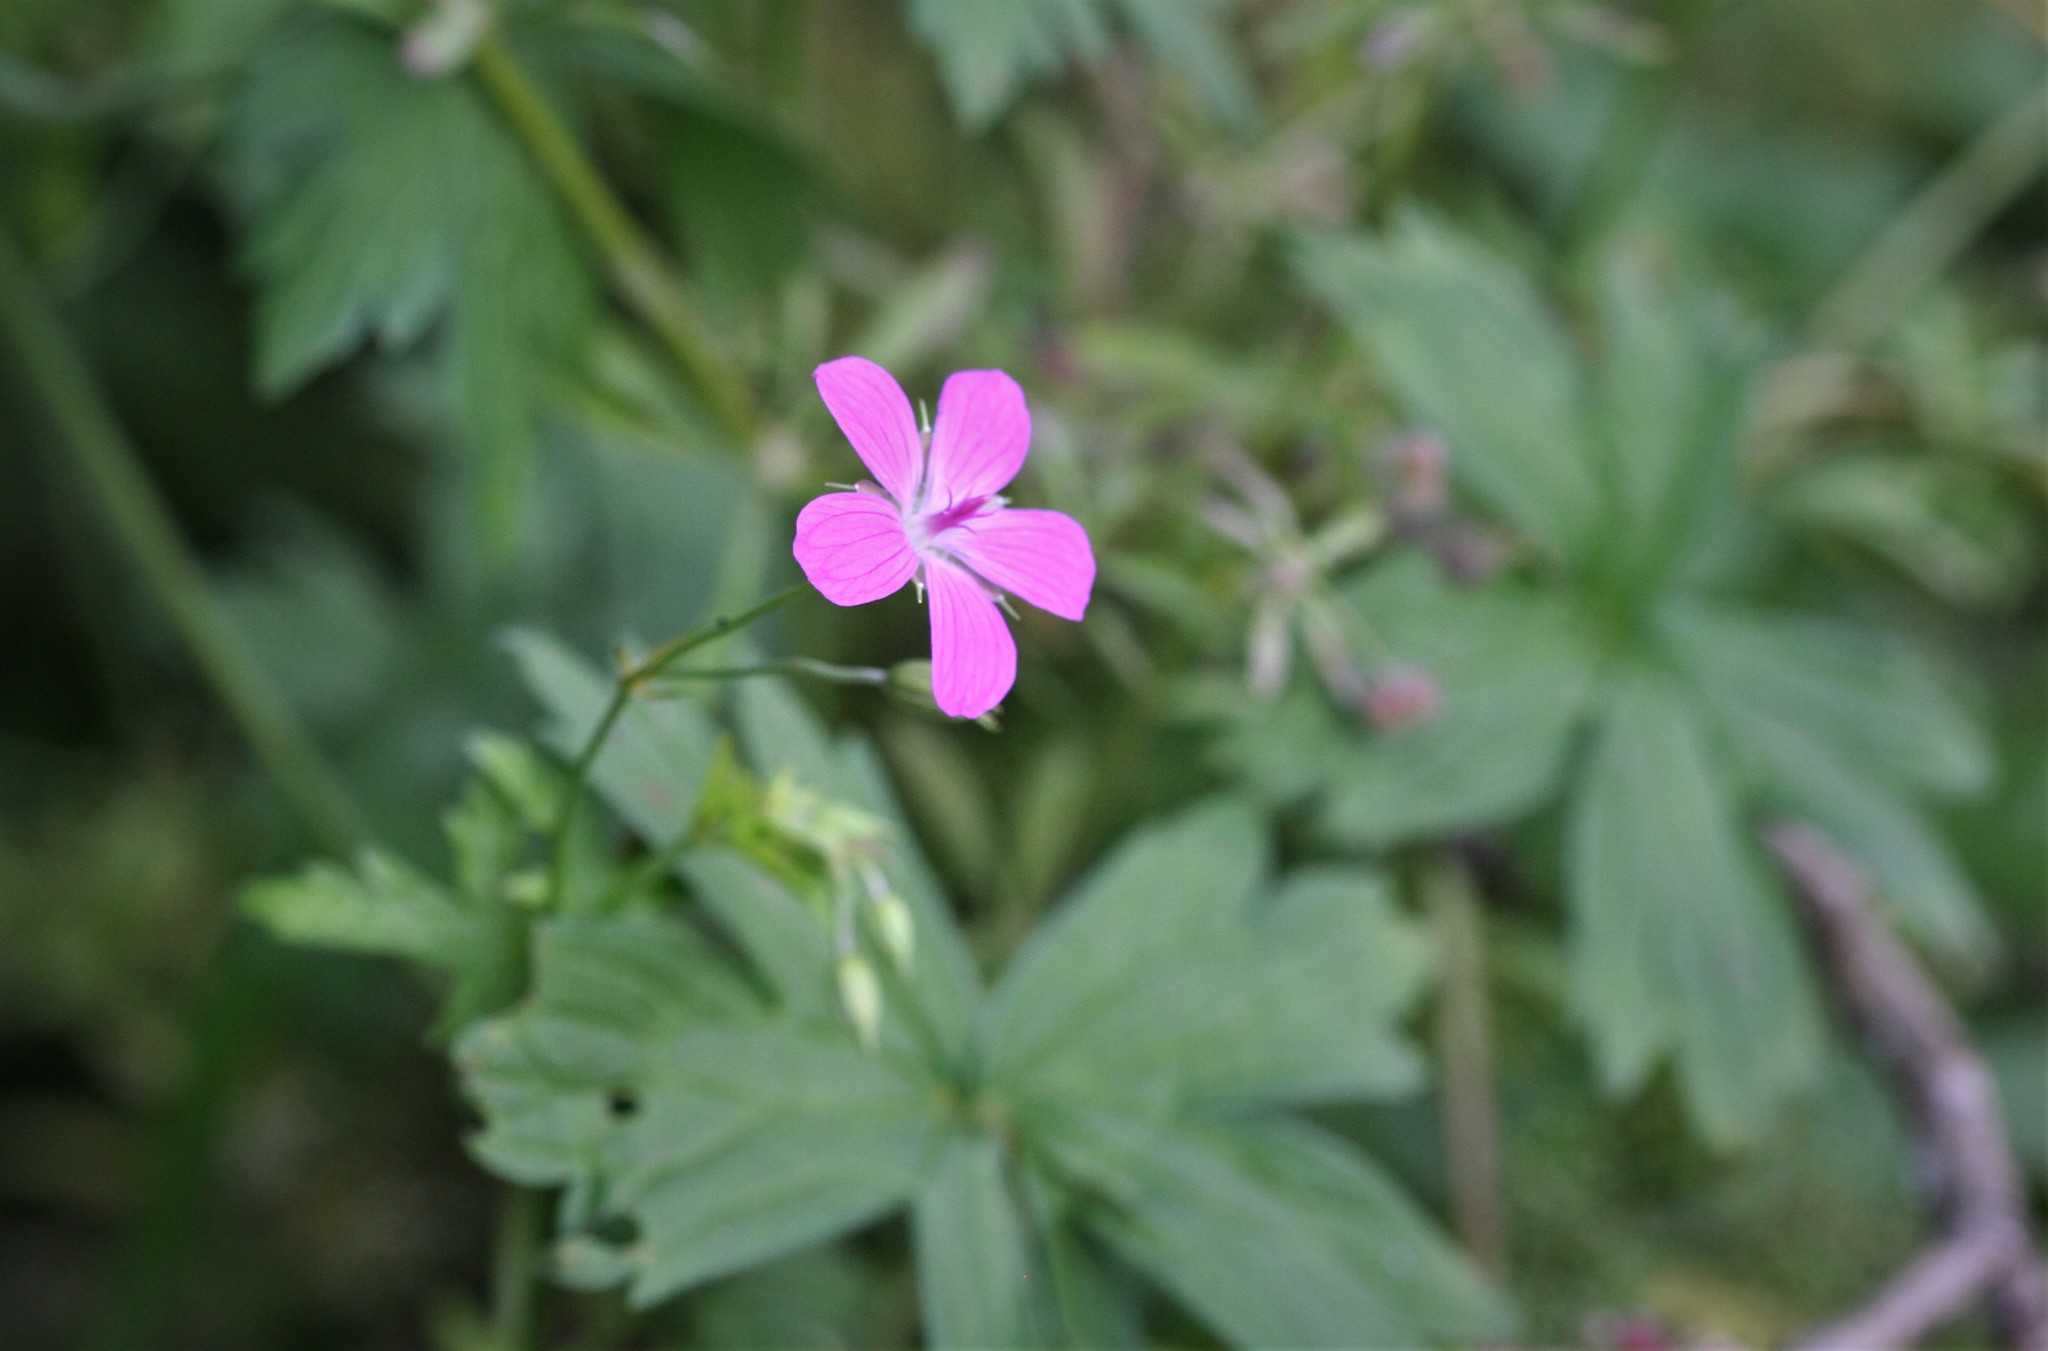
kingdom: Plantae
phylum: Tracheophyta
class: Magnoliopsida
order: Geraniales
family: Geraniaceae
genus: Geranium
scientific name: Geranium palustre
